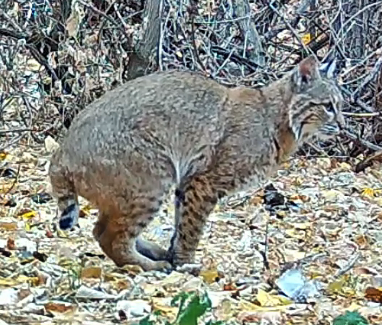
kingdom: Animalia
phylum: Chordata
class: Mammalia
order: Carnivora
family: Felidae
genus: Lynx
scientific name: Lynx rufus
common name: Bobcat
